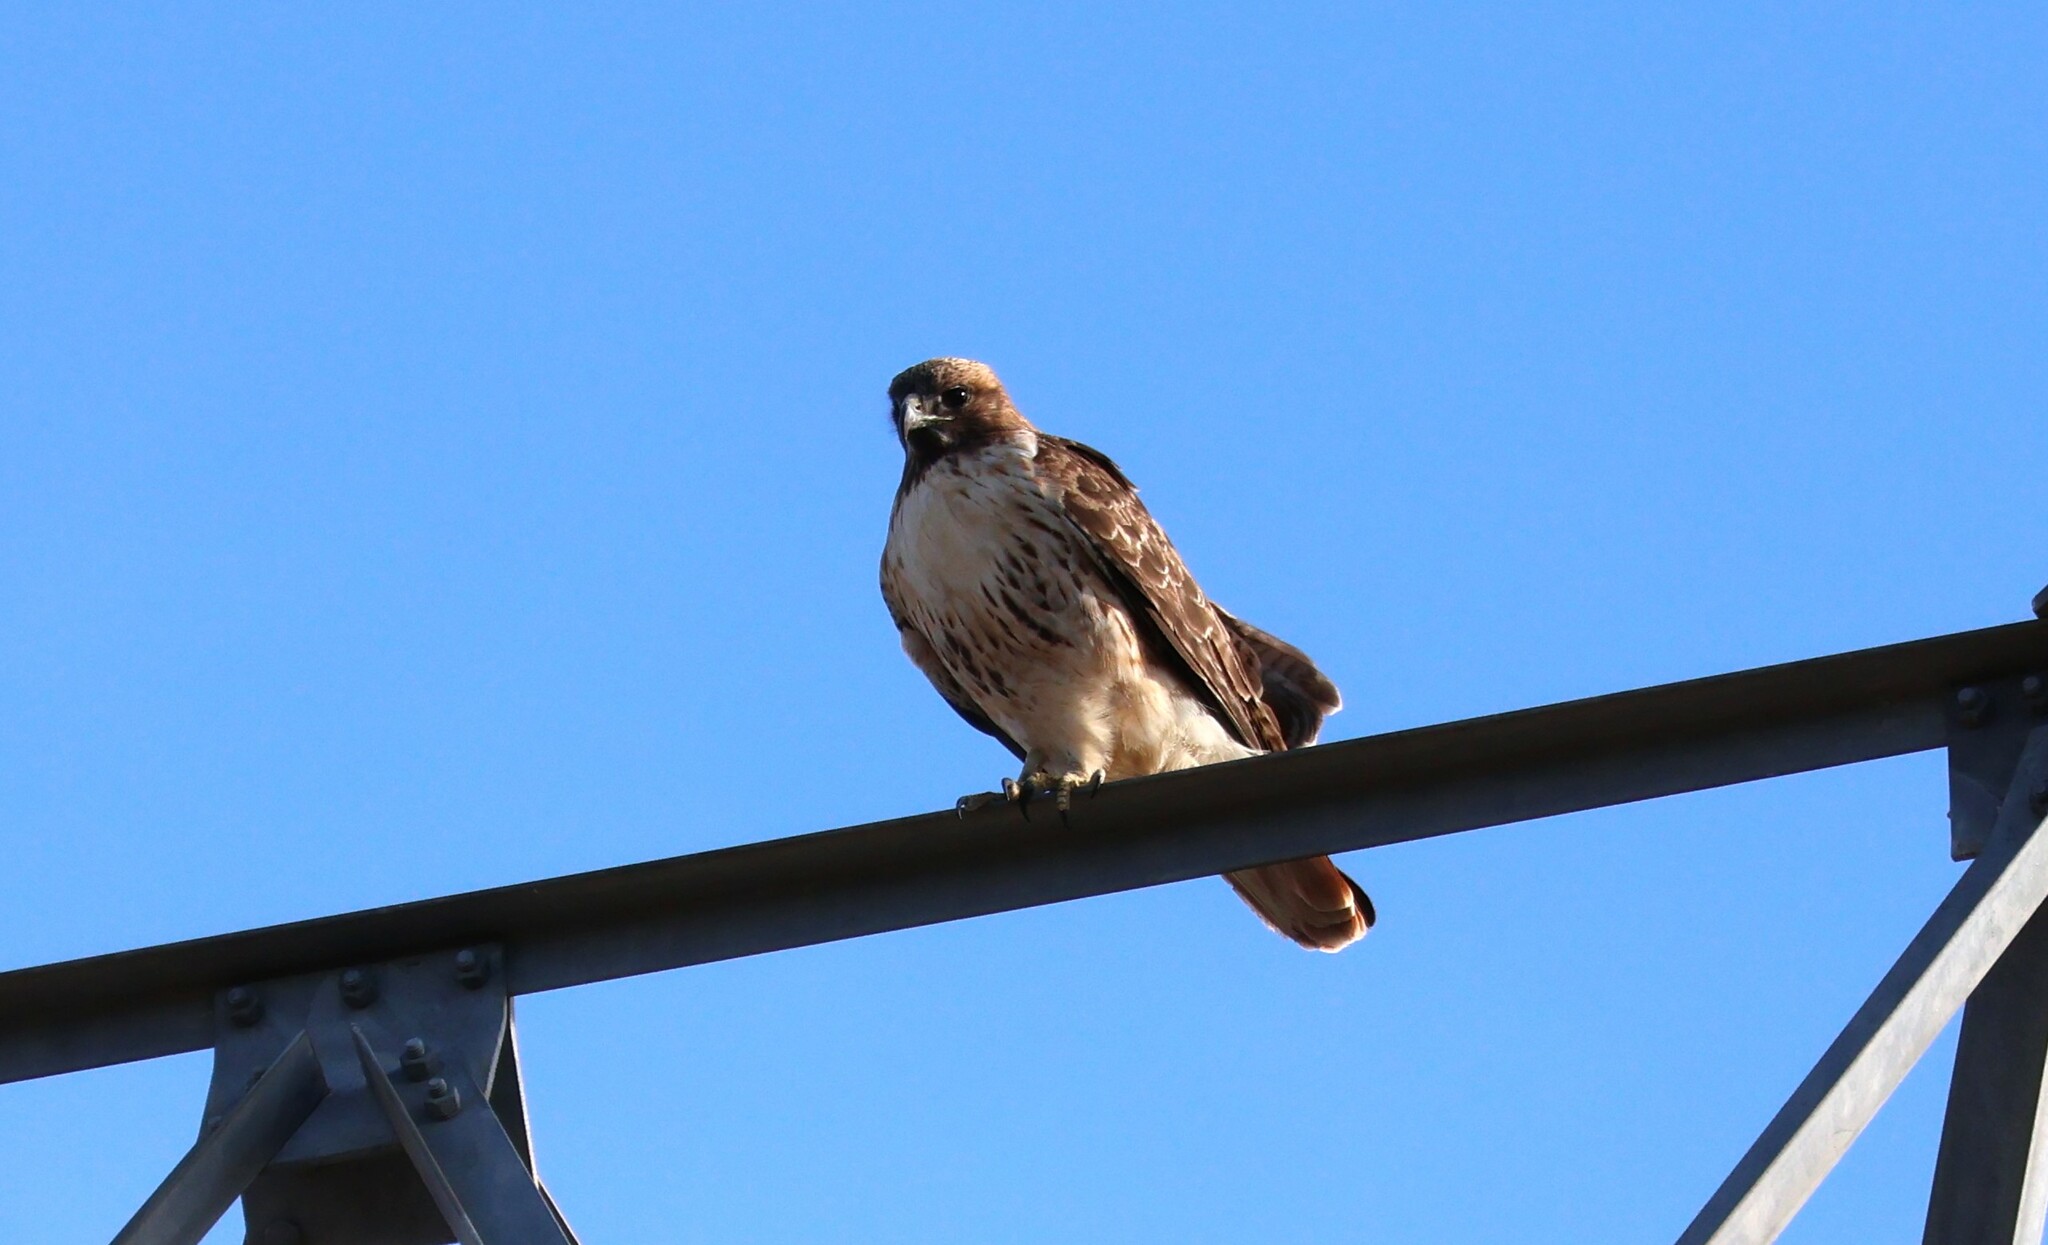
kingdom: Animalia
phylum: Chordata
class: Aves
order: Accipitriformes
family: Accipitridae
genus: Buteo
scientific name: Buteo jamaicensis
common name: Red-tailed hawk
